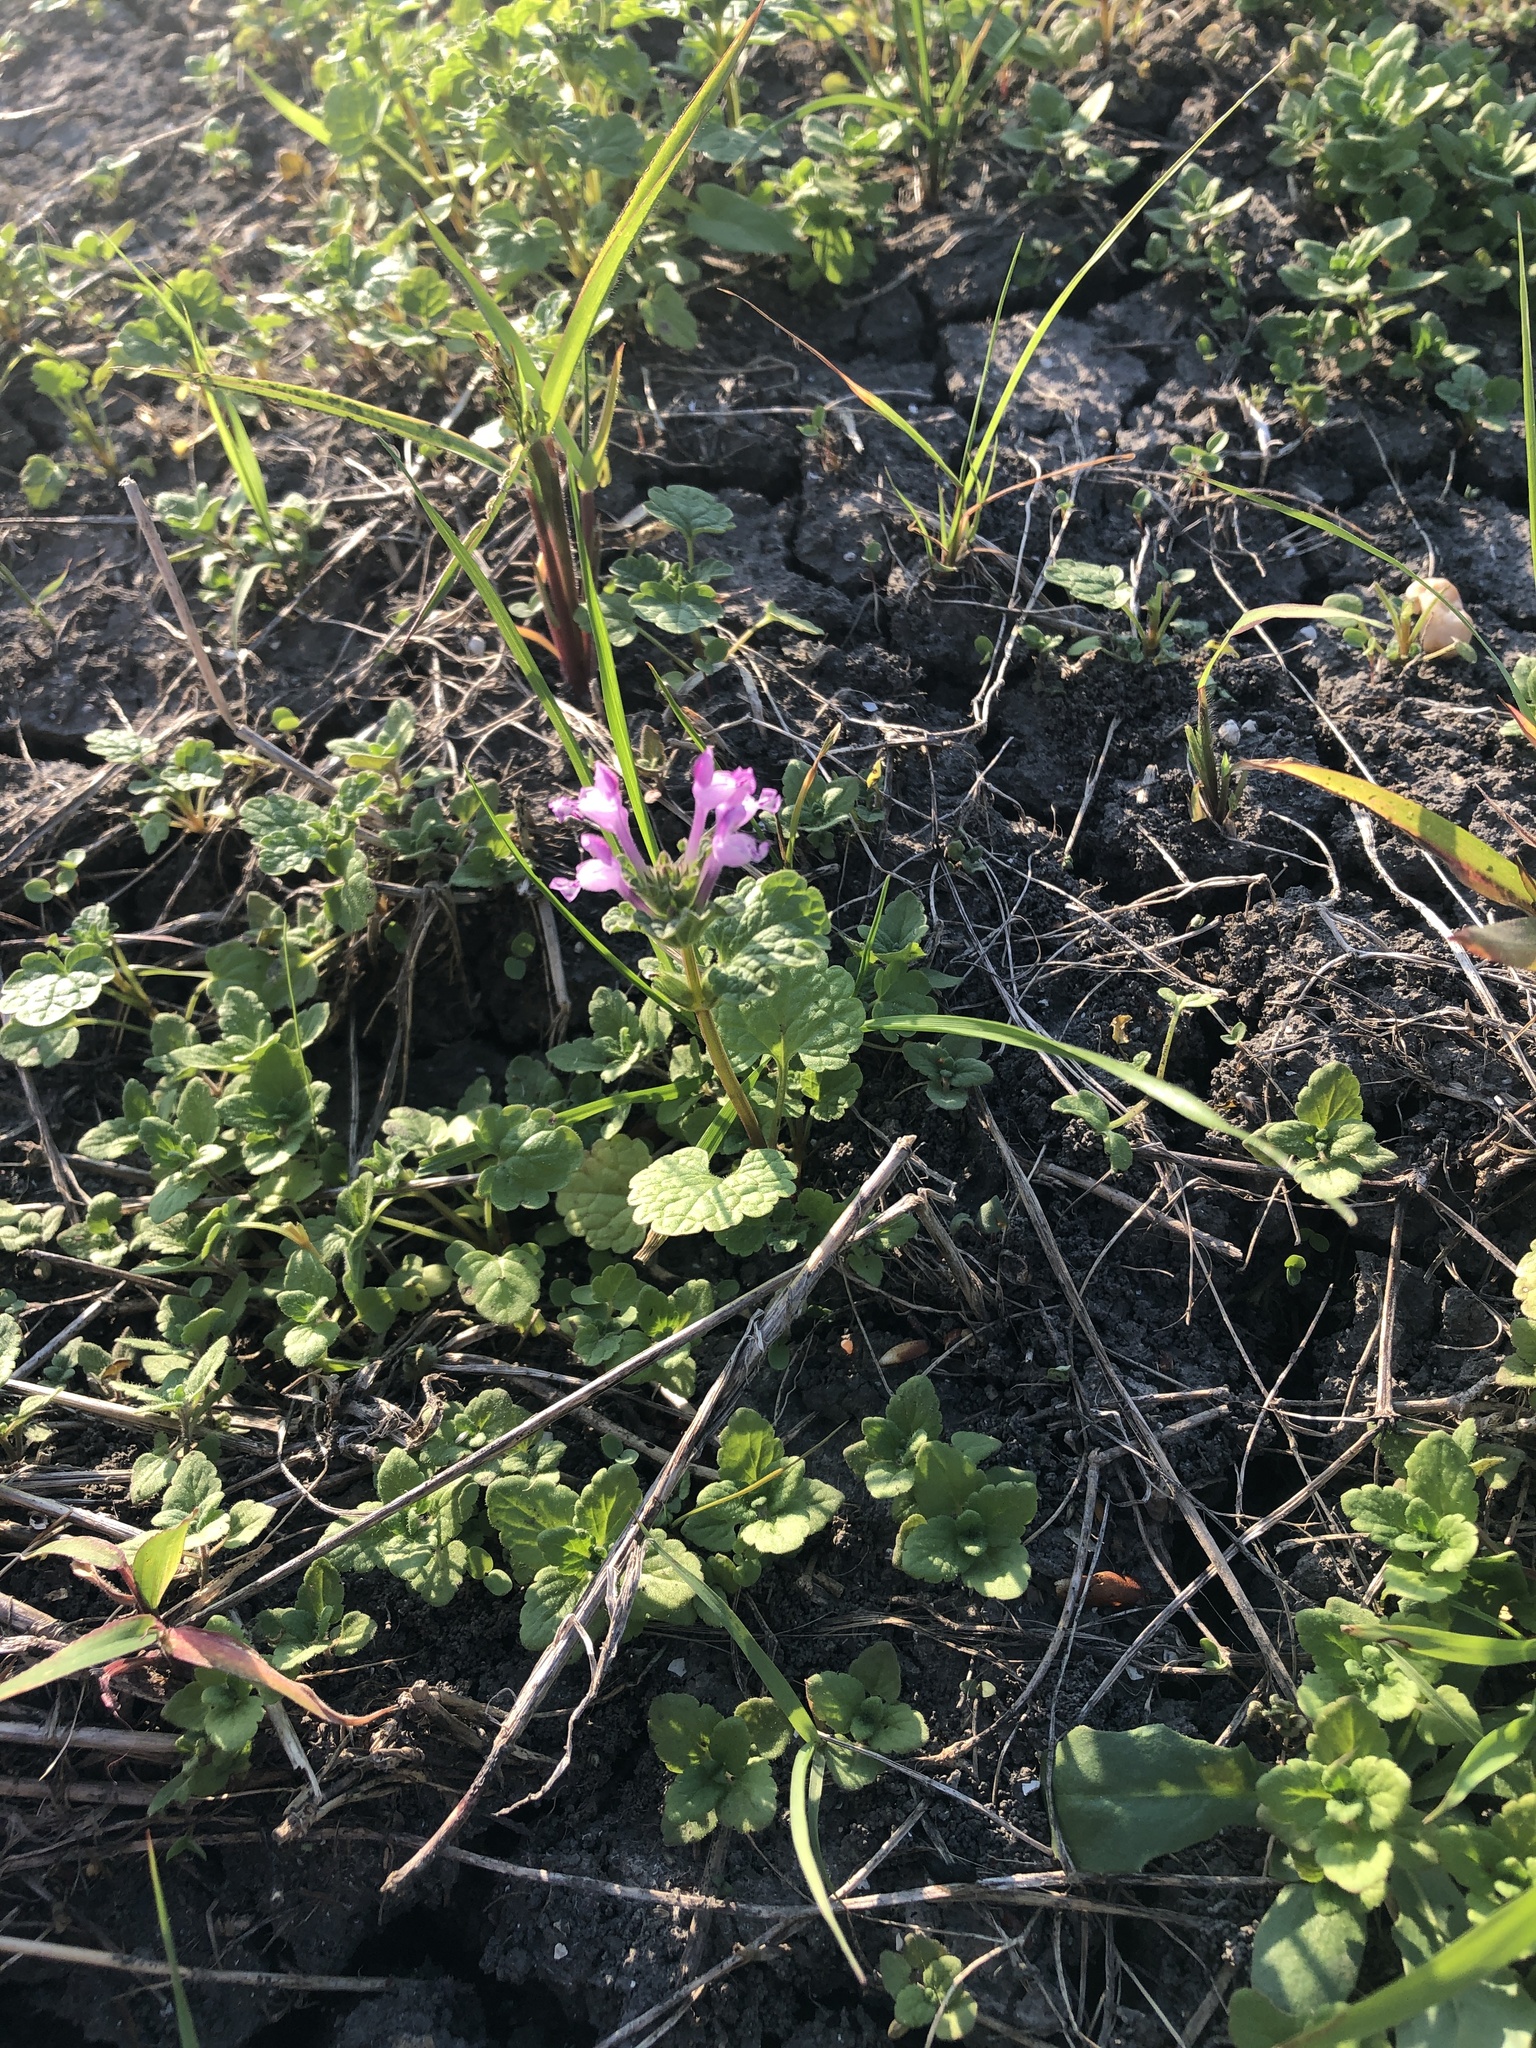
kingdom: Plantae
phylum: Tracheophyta
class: Magnoliopsida
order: Lamiales
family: Lamiaceae
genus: Lamium
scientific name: Lamium amplexicaule
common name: Henbit dead-nettle
